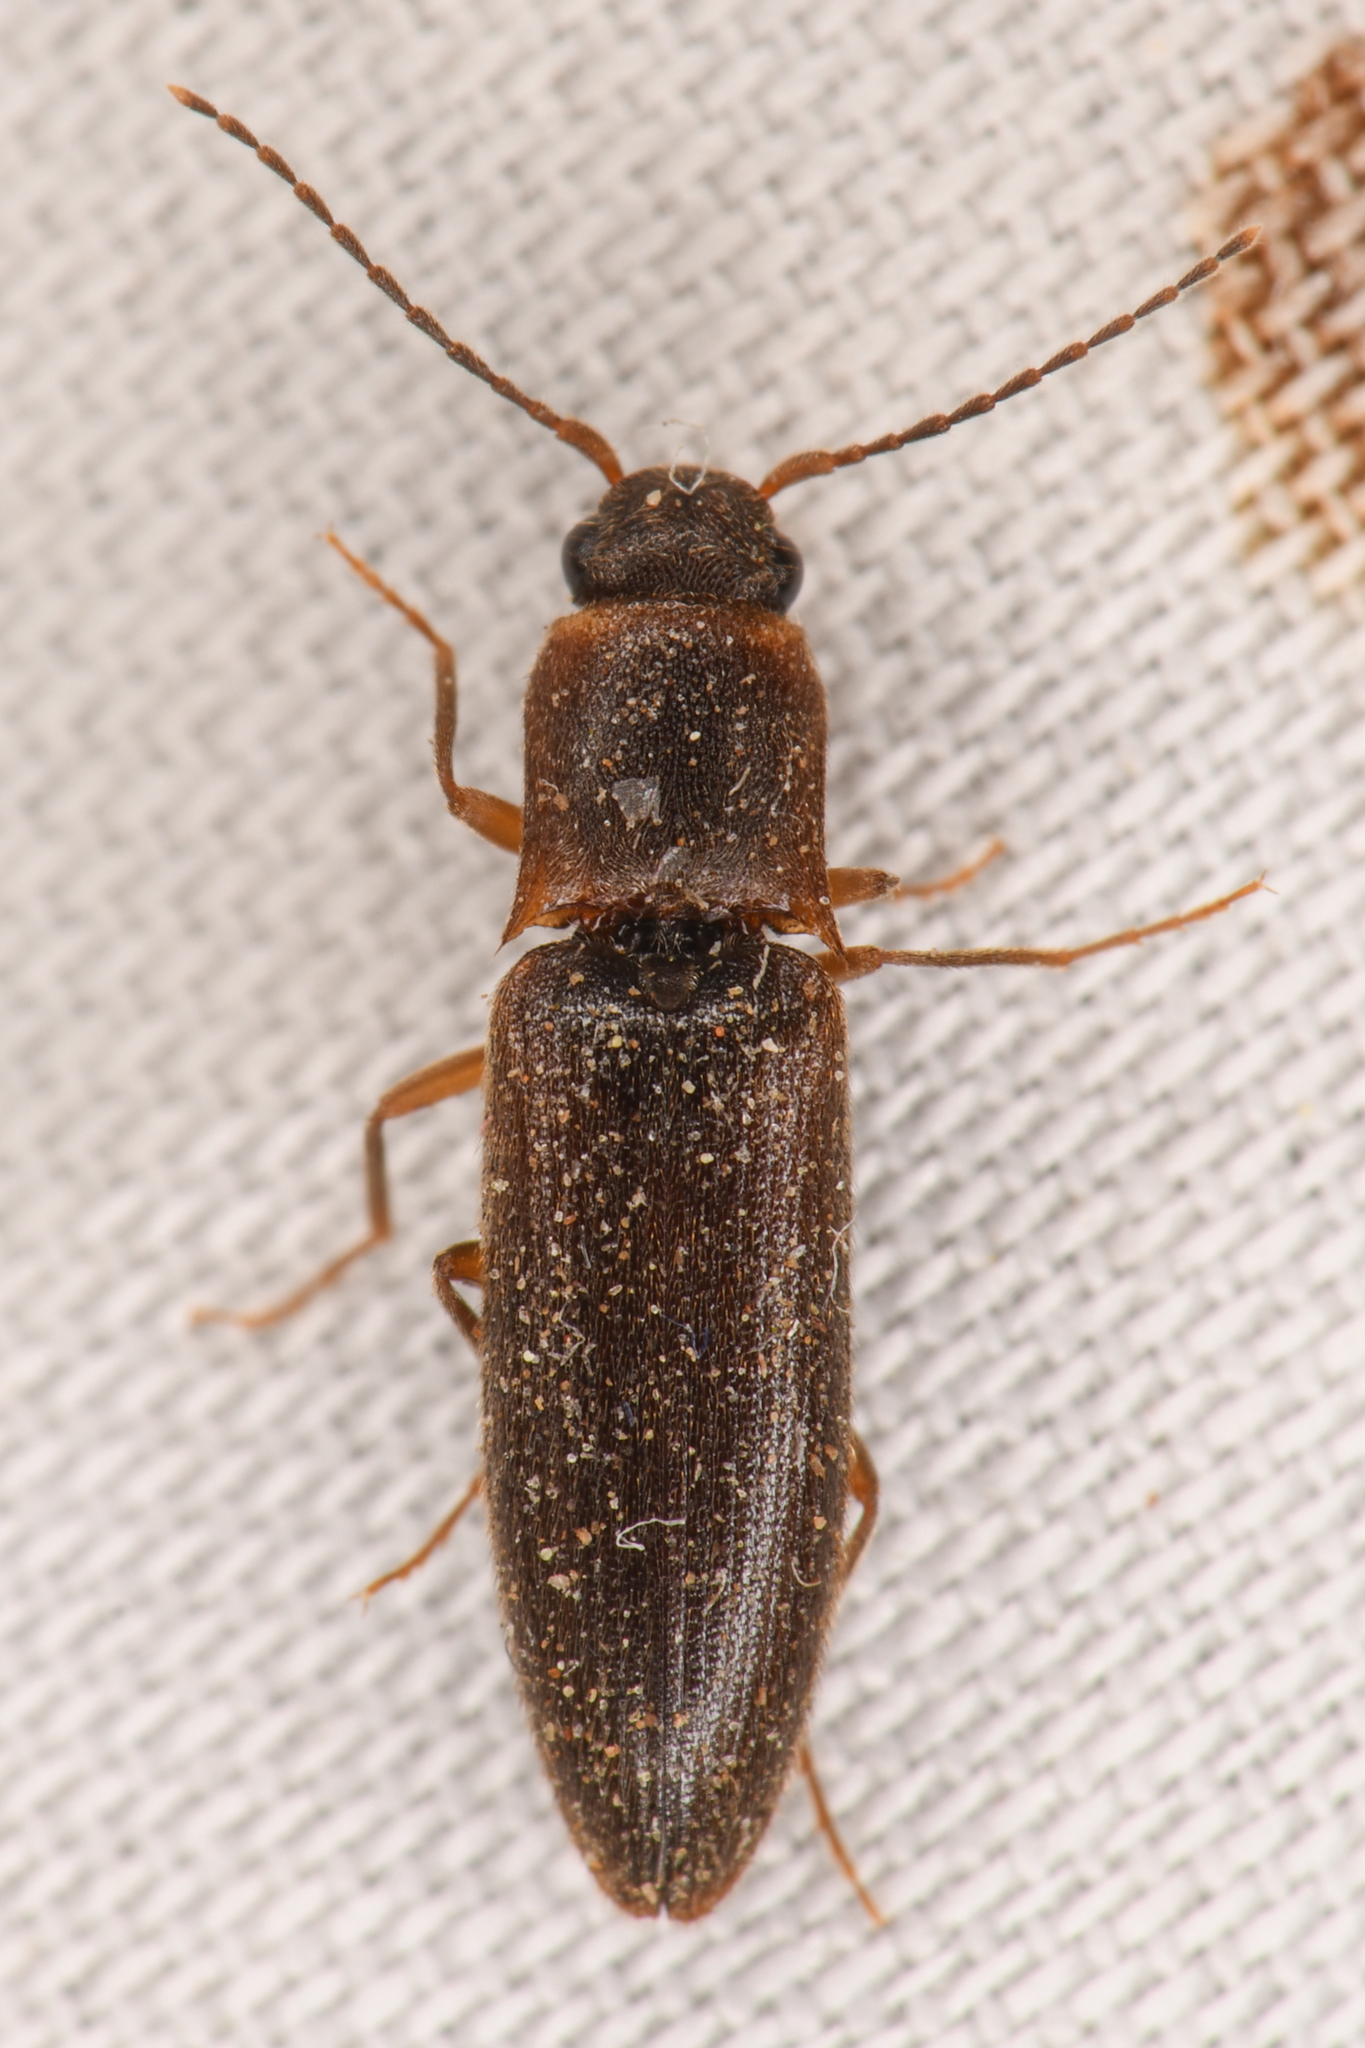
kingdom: Animalia
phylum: Arthropoda
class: Insecta
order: Coleoptera
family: Elateridae
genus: Dalopius
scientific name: Dalopius
